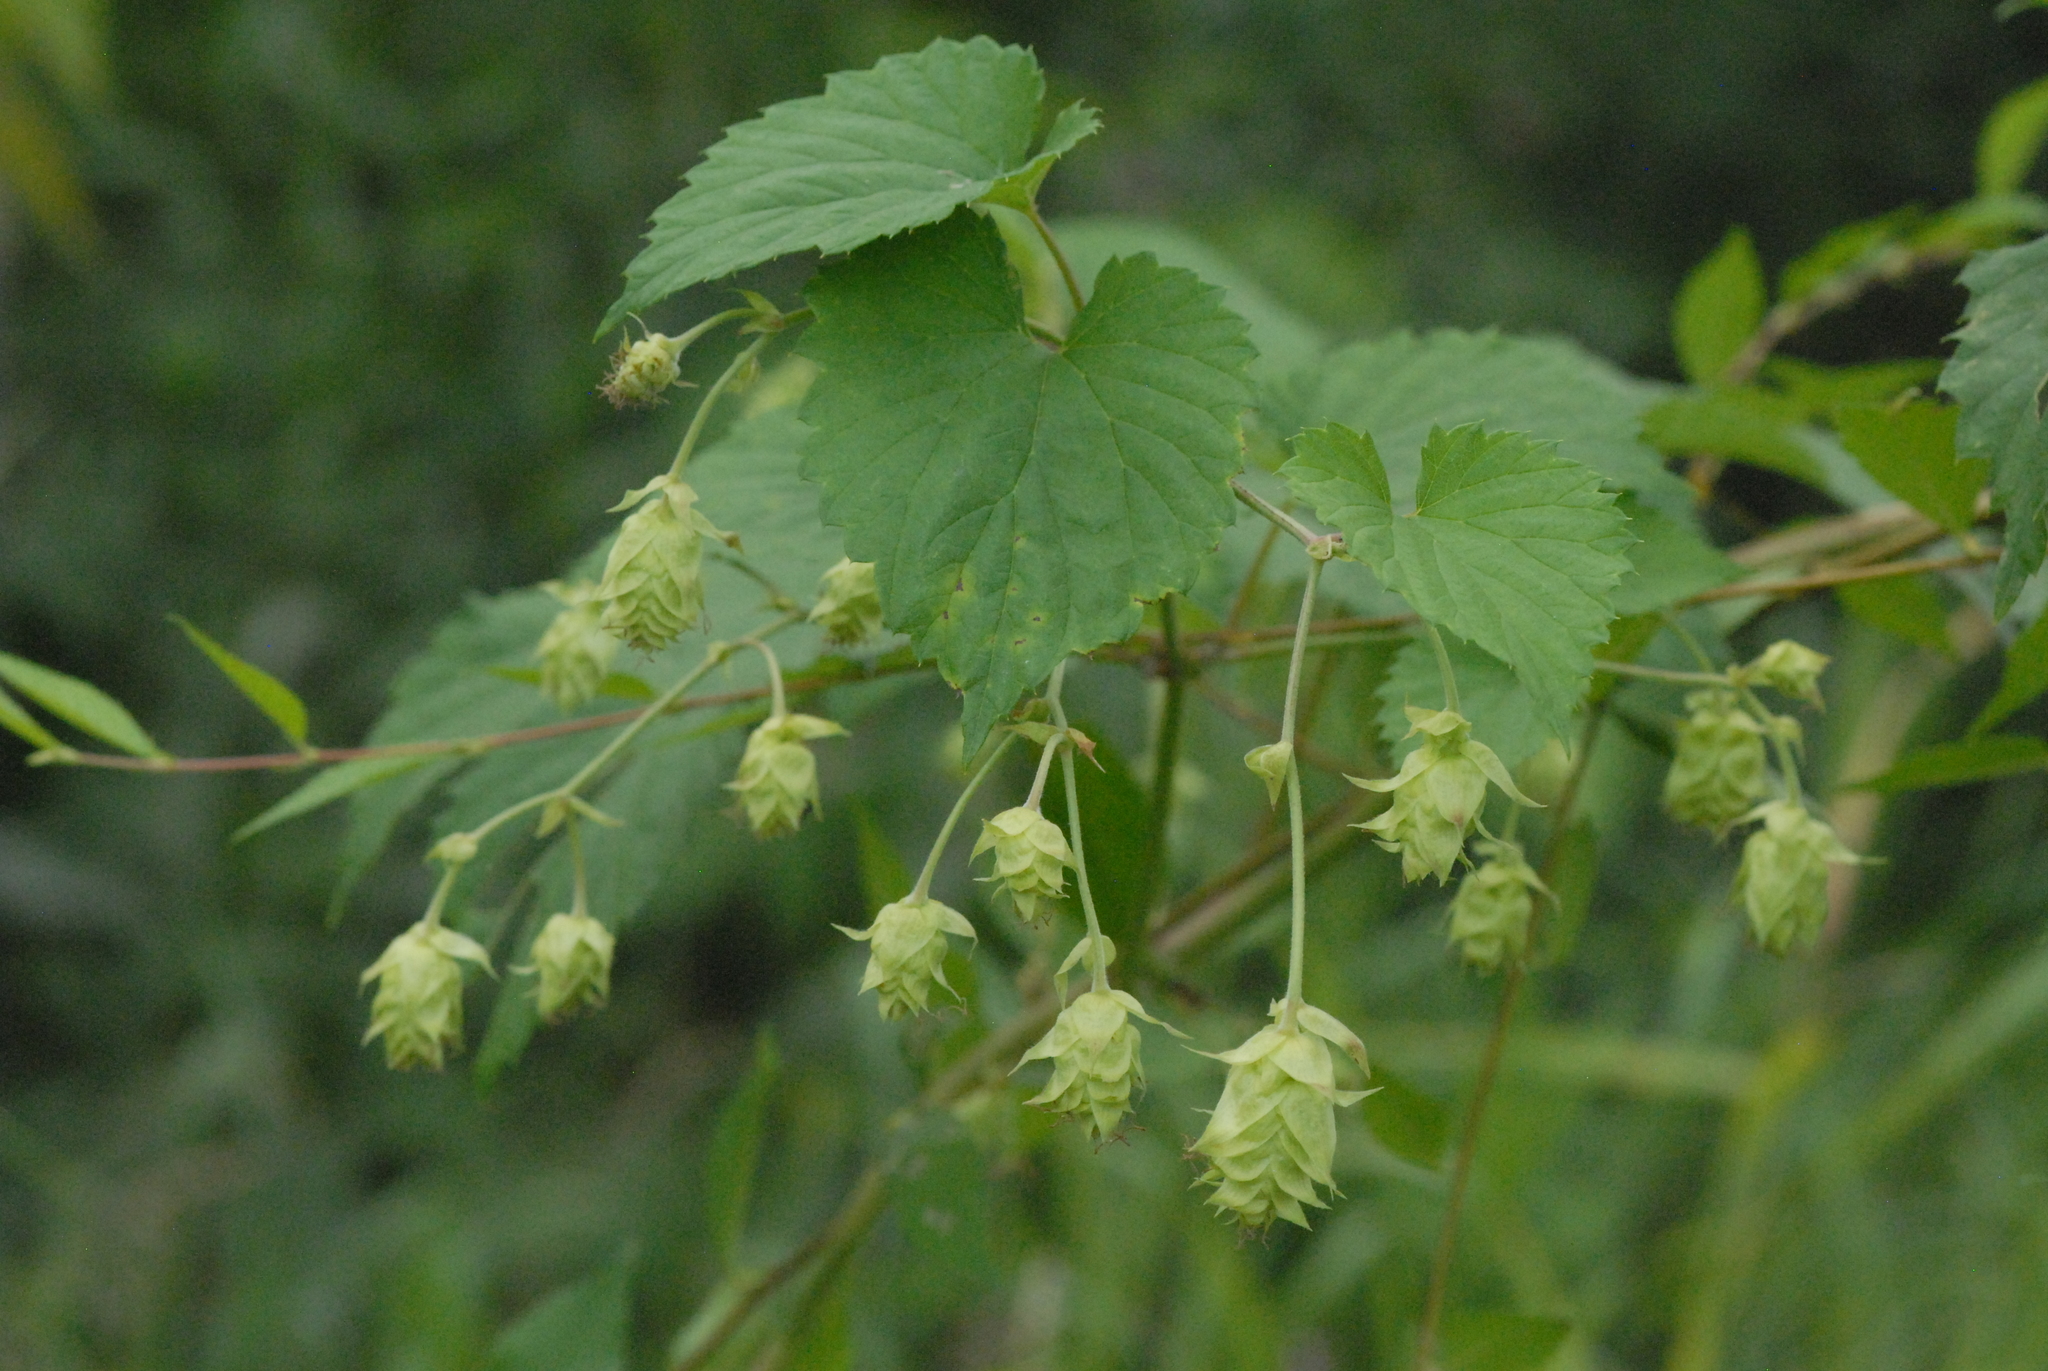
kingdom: Plantae
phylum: Tracheophyta
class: Magnoliopsida
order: Rosales
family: Cannabaceae
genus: Humulus
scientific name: Humulus lupulus
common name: Hop
